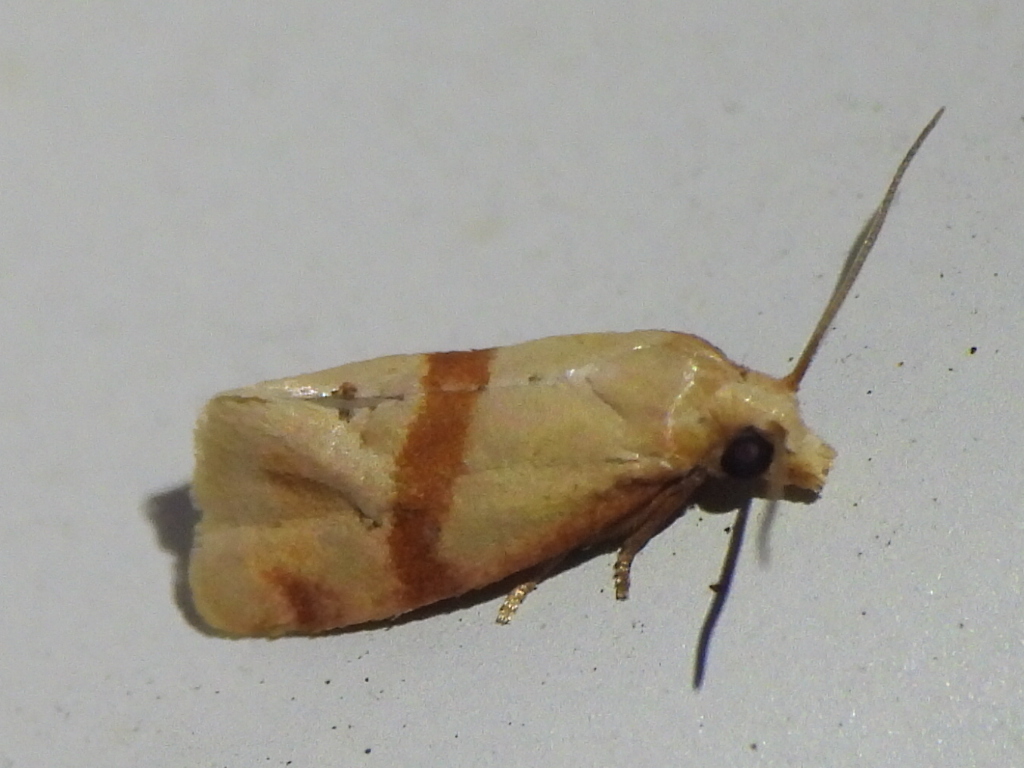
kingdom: Animalia
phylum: Arthropoda
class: Insecta
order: Lepidoptera
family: Tortricidae
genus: Cochylis
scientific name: Cochylis caulocatax
